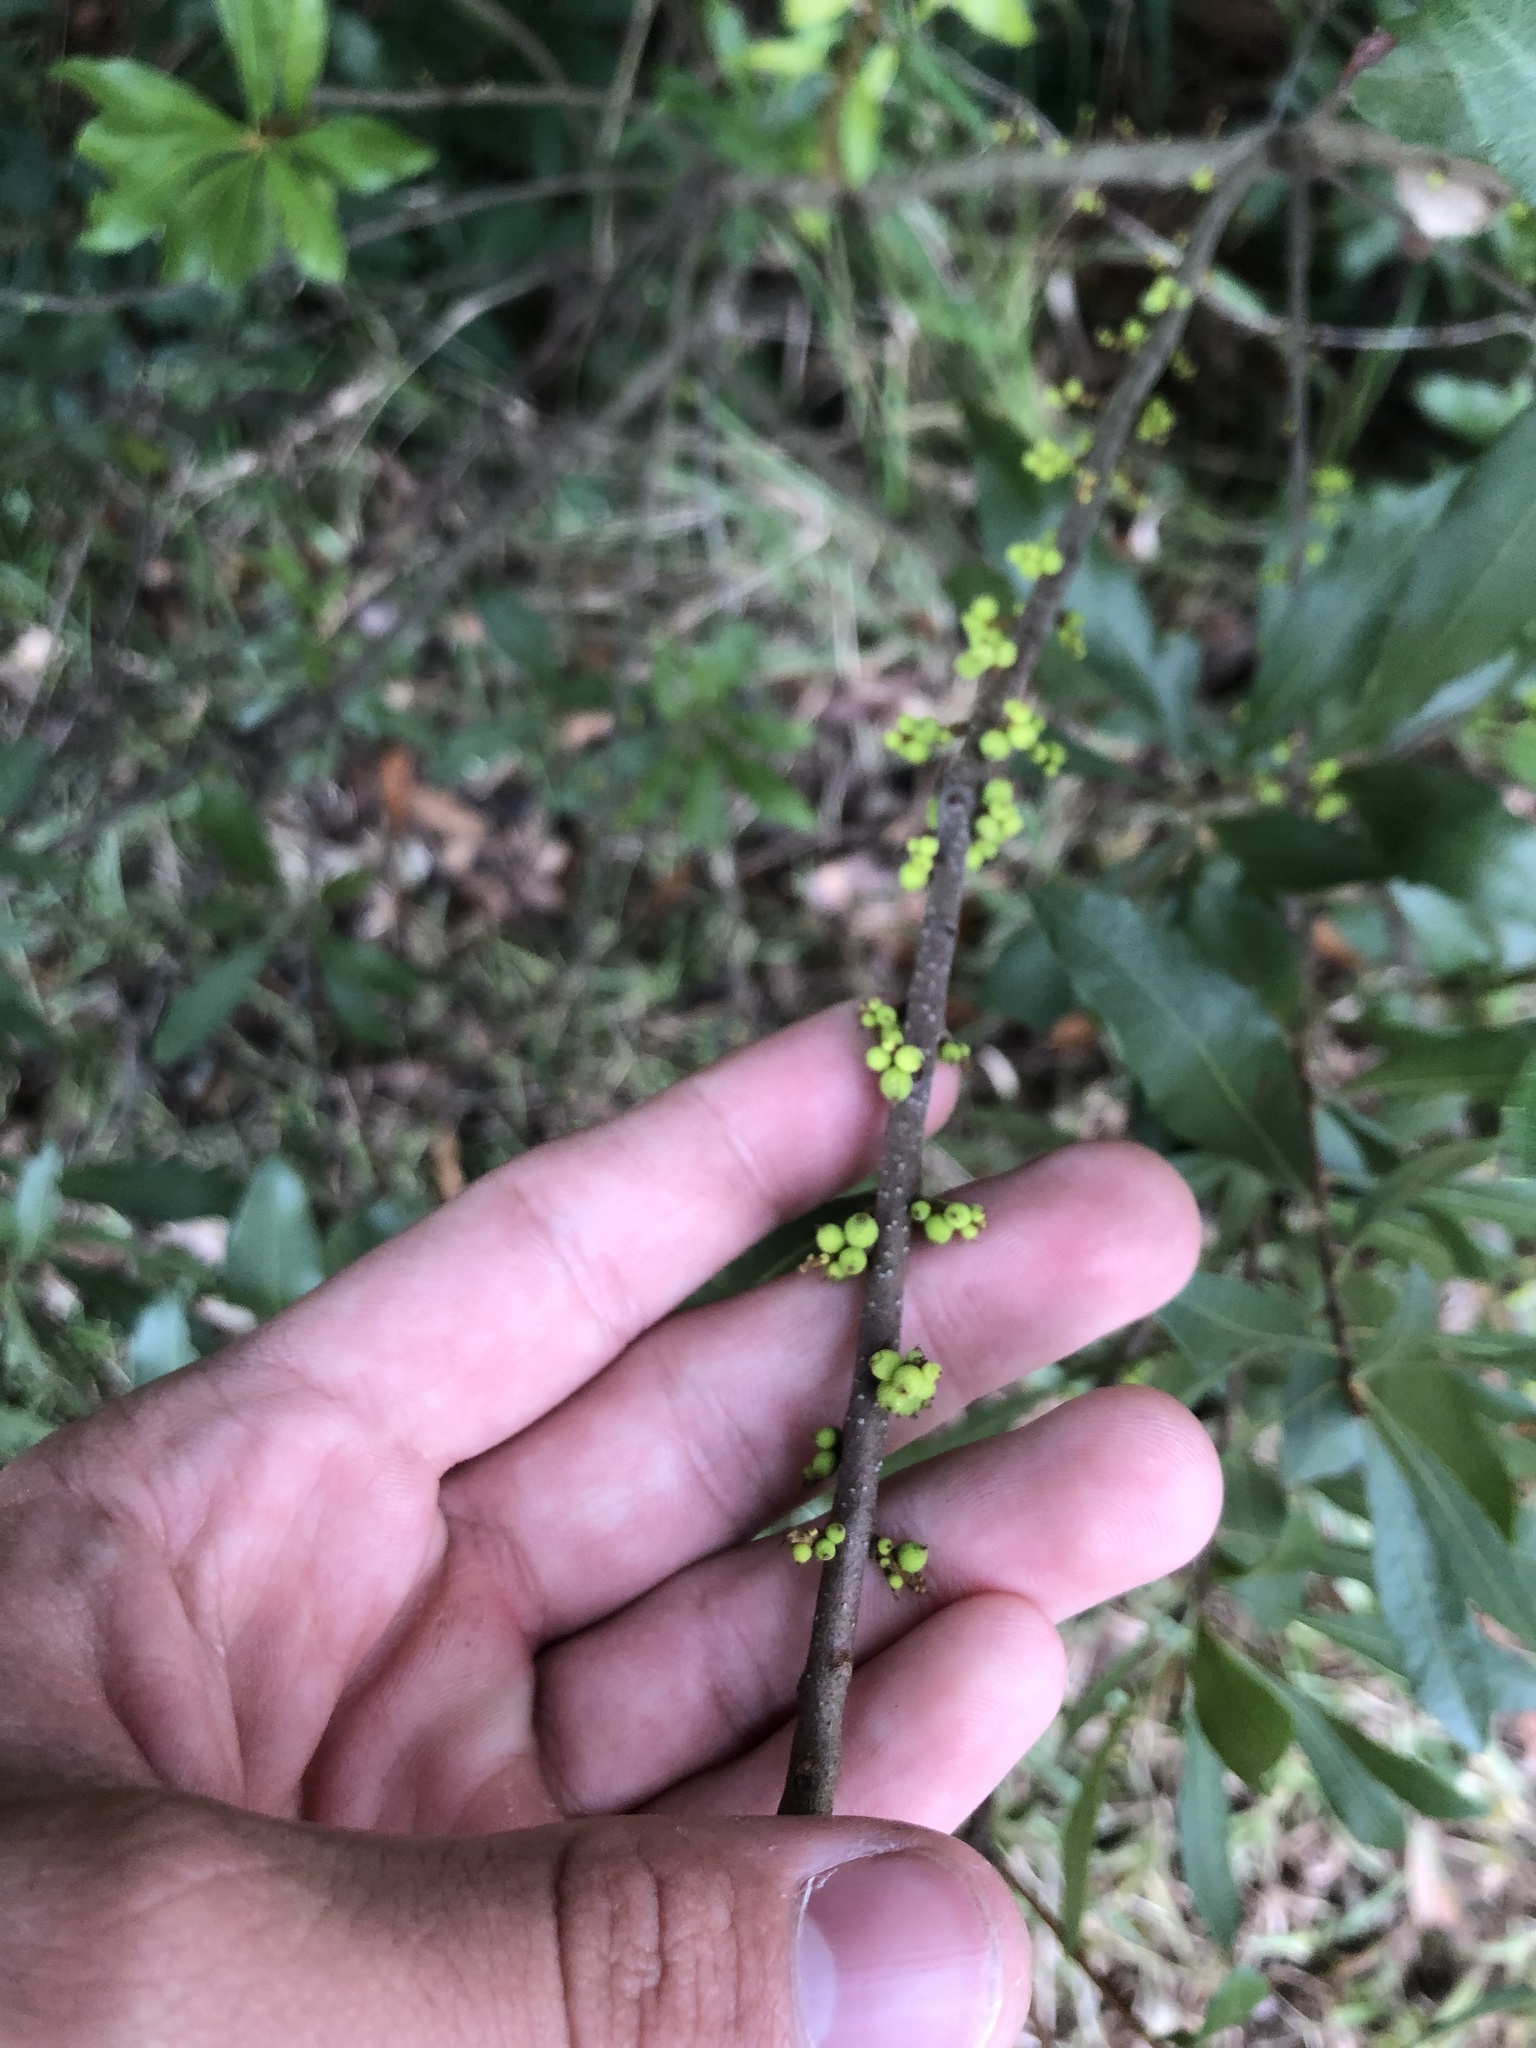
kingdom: Plantae
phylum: Tracheophyta
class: Magnoliopsida
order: Fagales
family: Myricaceae
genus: Morella
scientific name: Morella cerifera
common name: Wax myrtle
